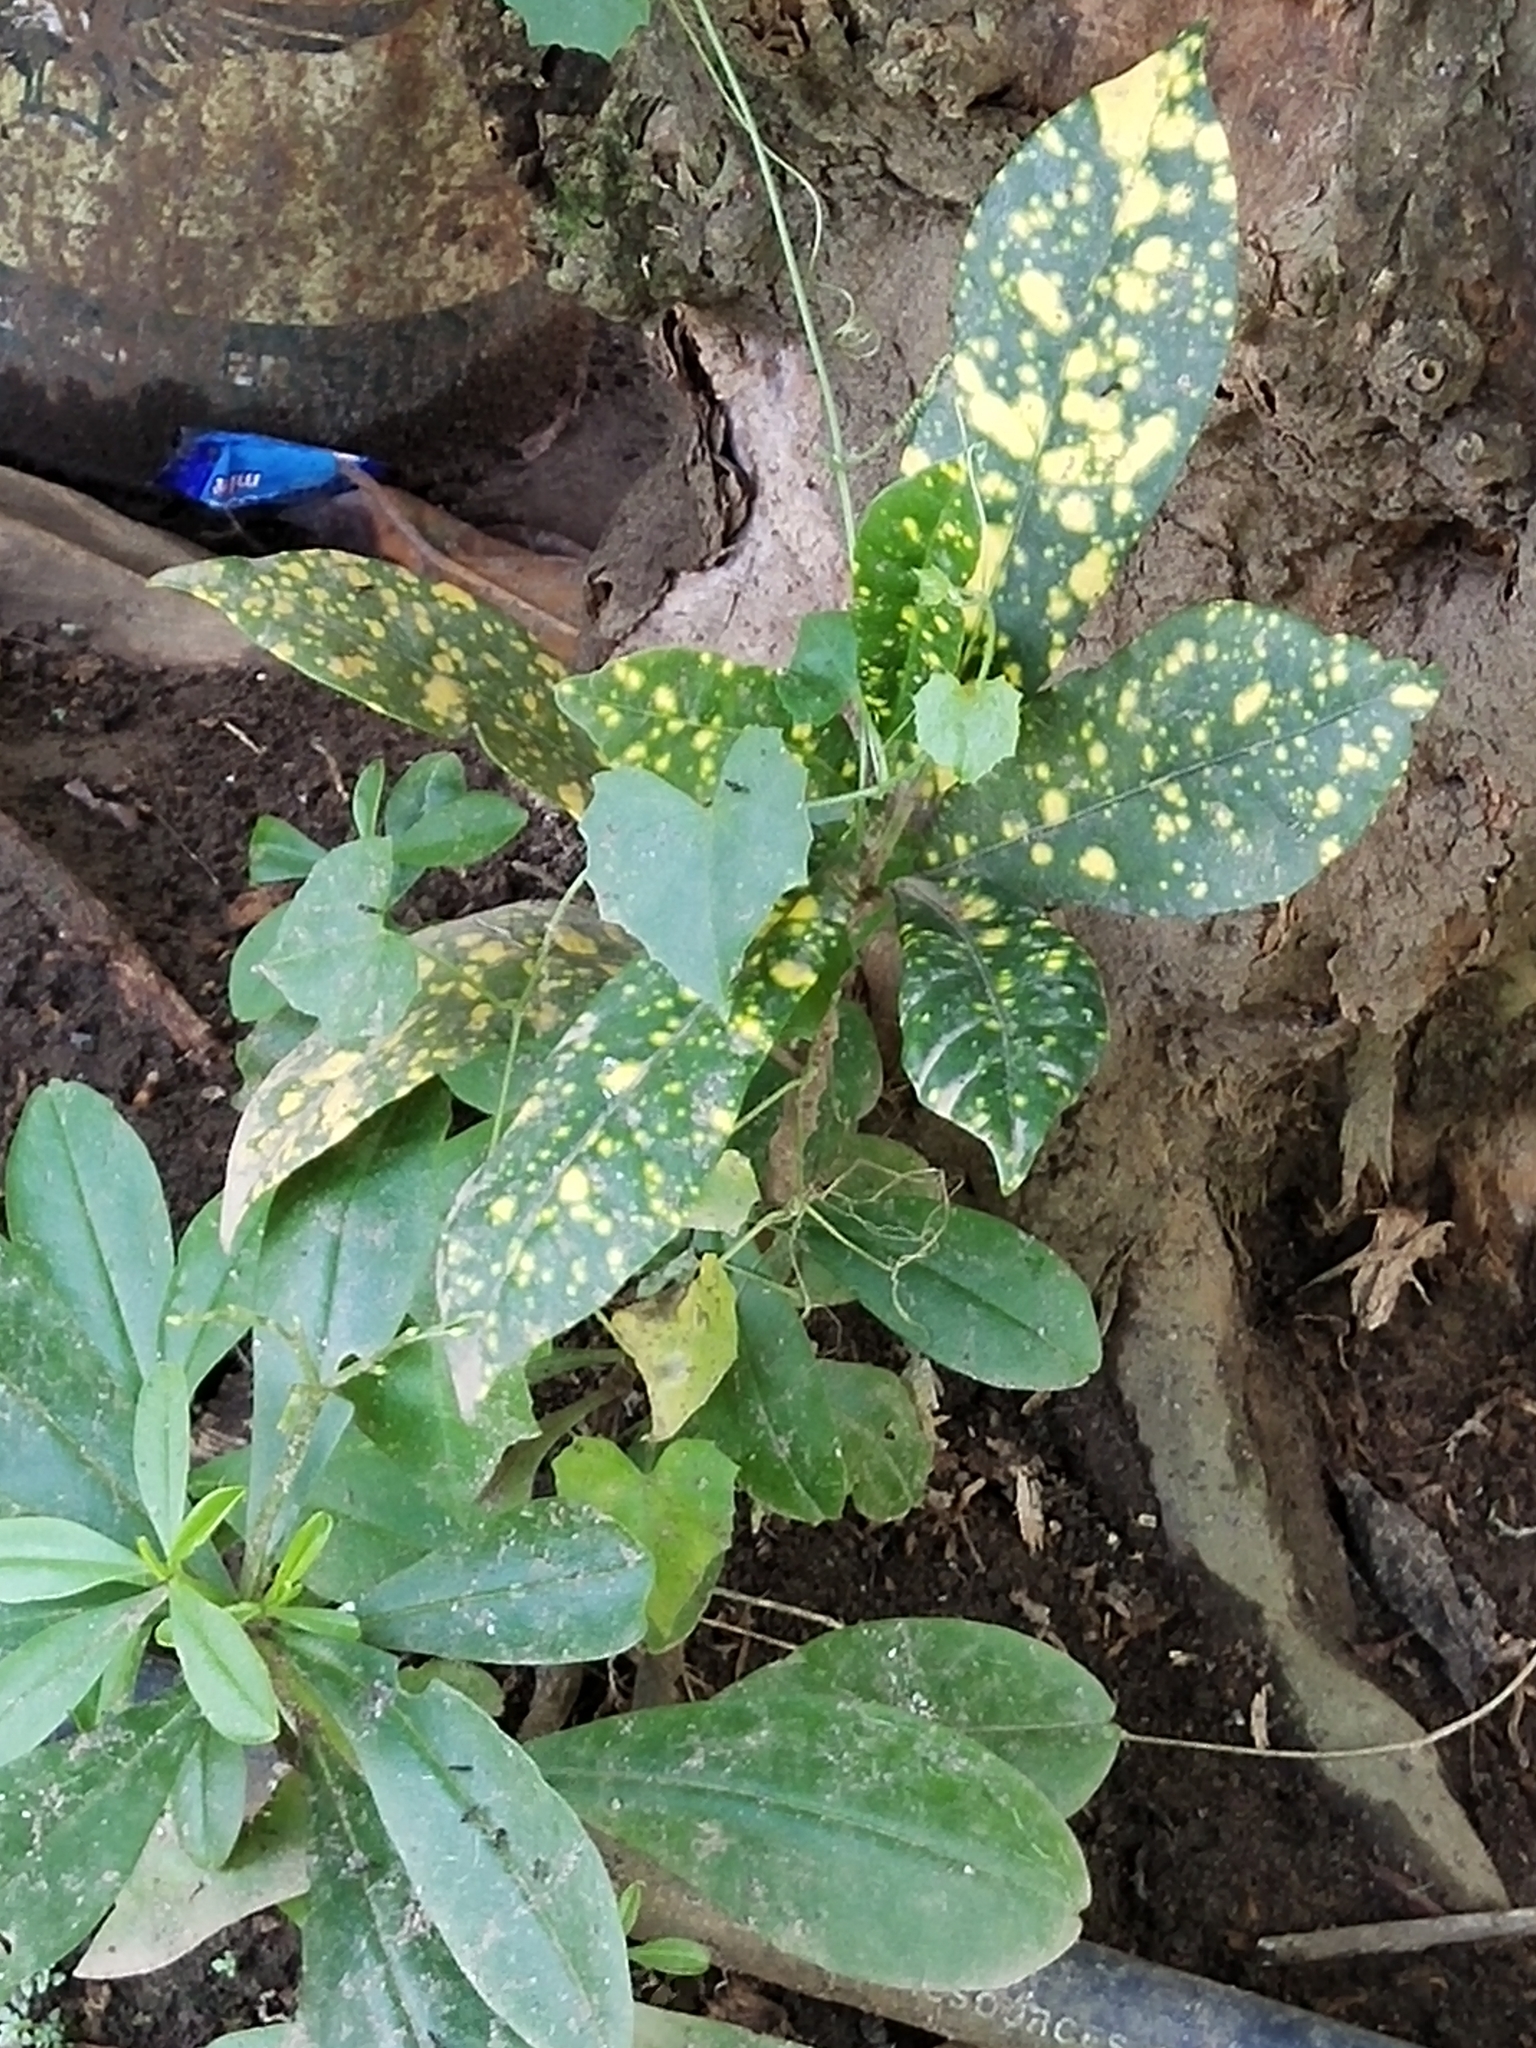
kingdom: Plantae
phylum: Tracheophyta
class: Magnoliopsida
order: Malpighiales
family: Euphorbiaceae
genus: Codiaeum
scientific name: Codiaeum variegatum
